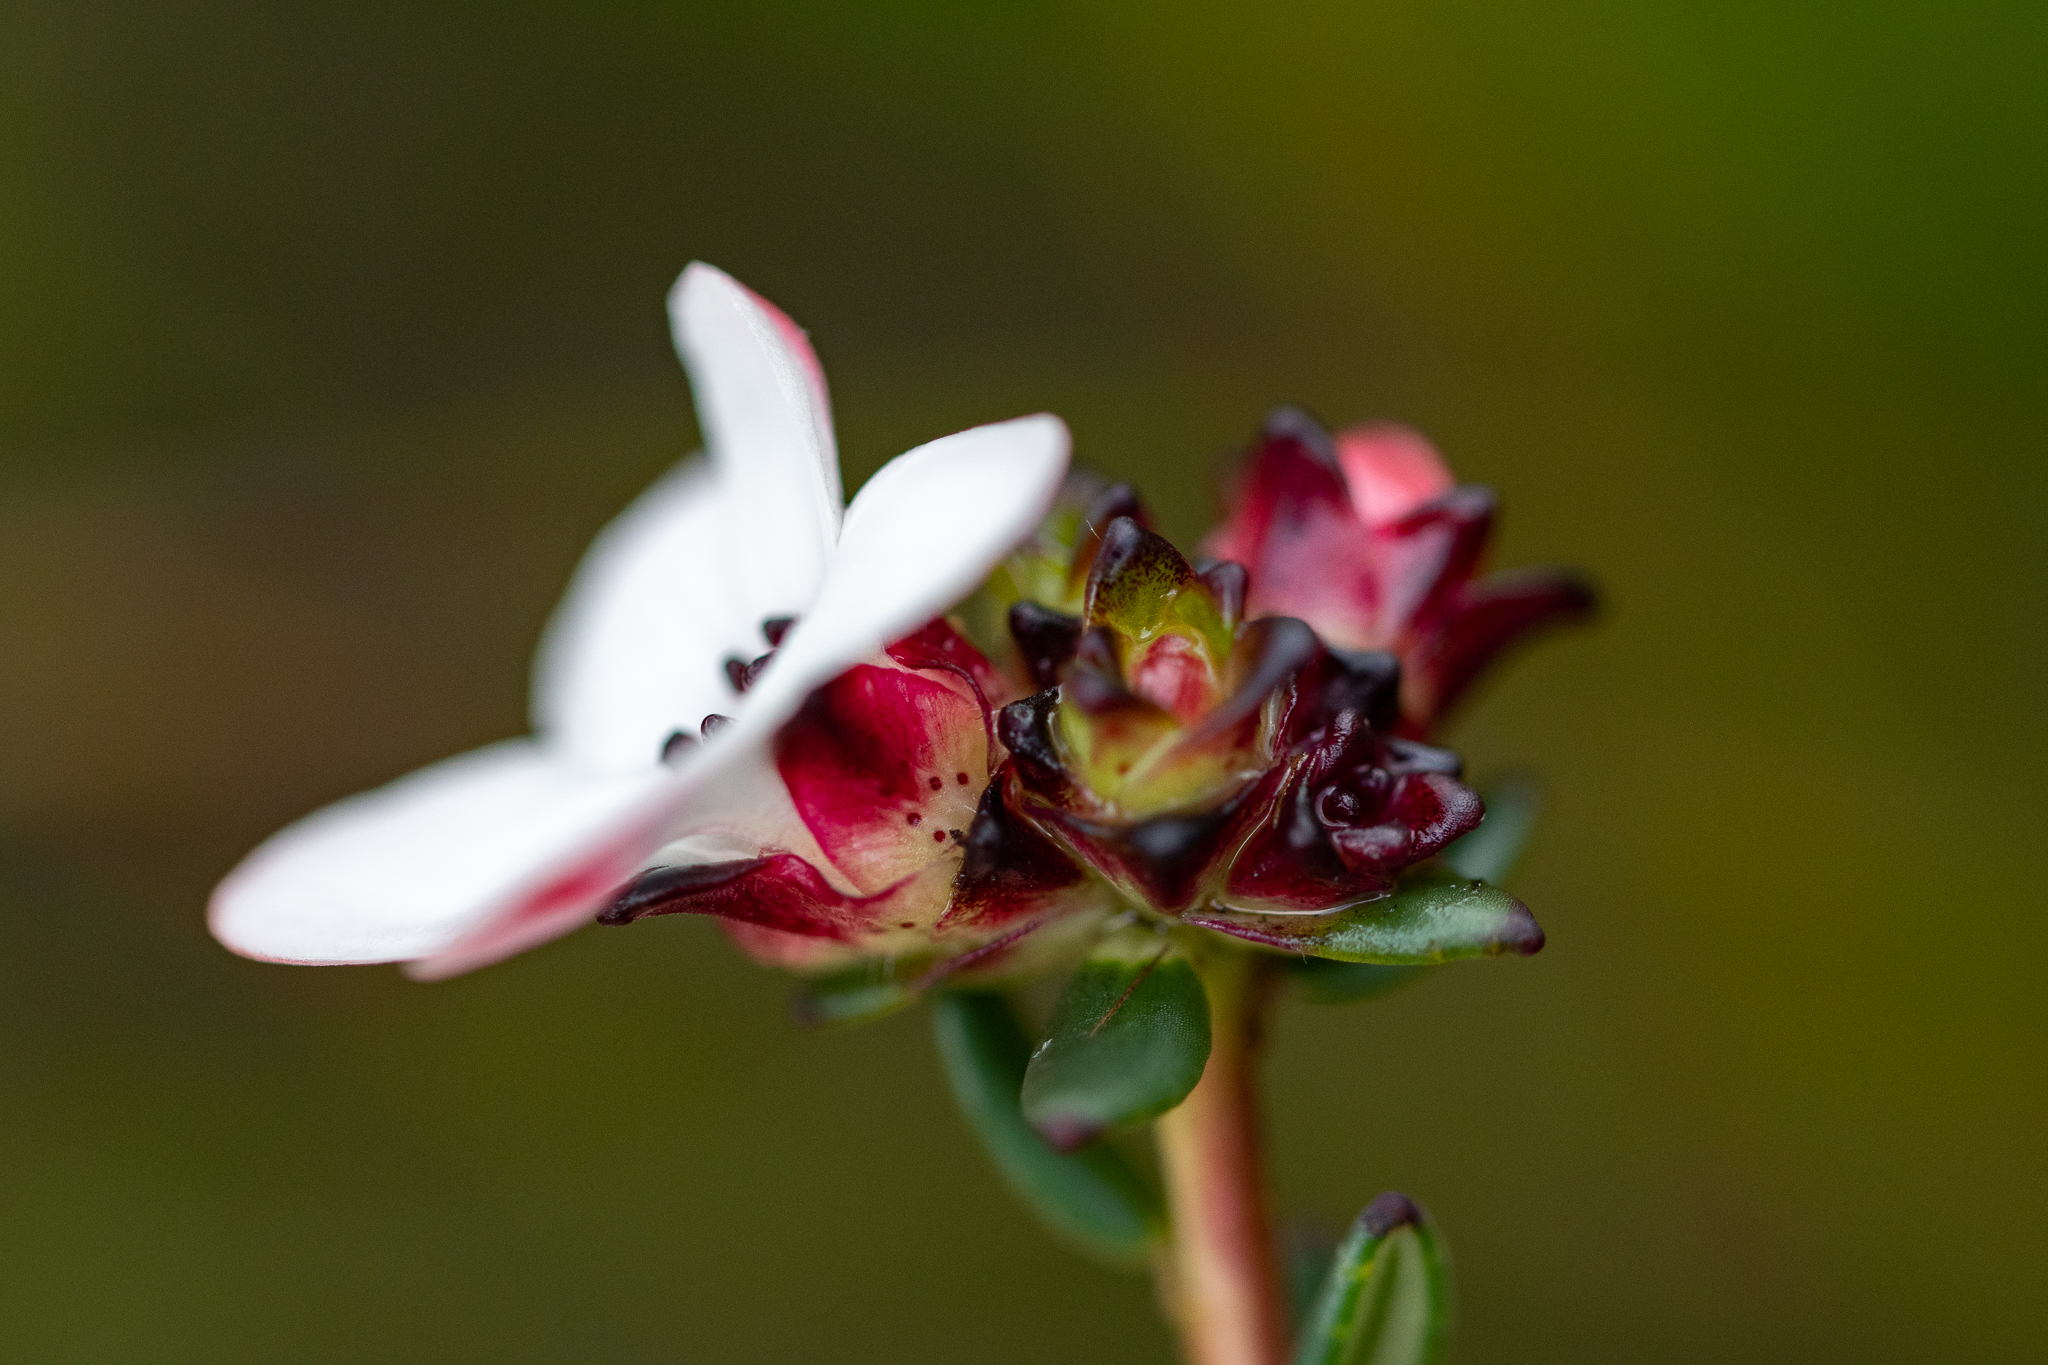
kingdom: Plantae
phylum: Tracheophyta
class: Magnoliopsida
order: Sapindales
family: Rutaceae
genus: Adenandra
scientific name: Adenandra viscida
